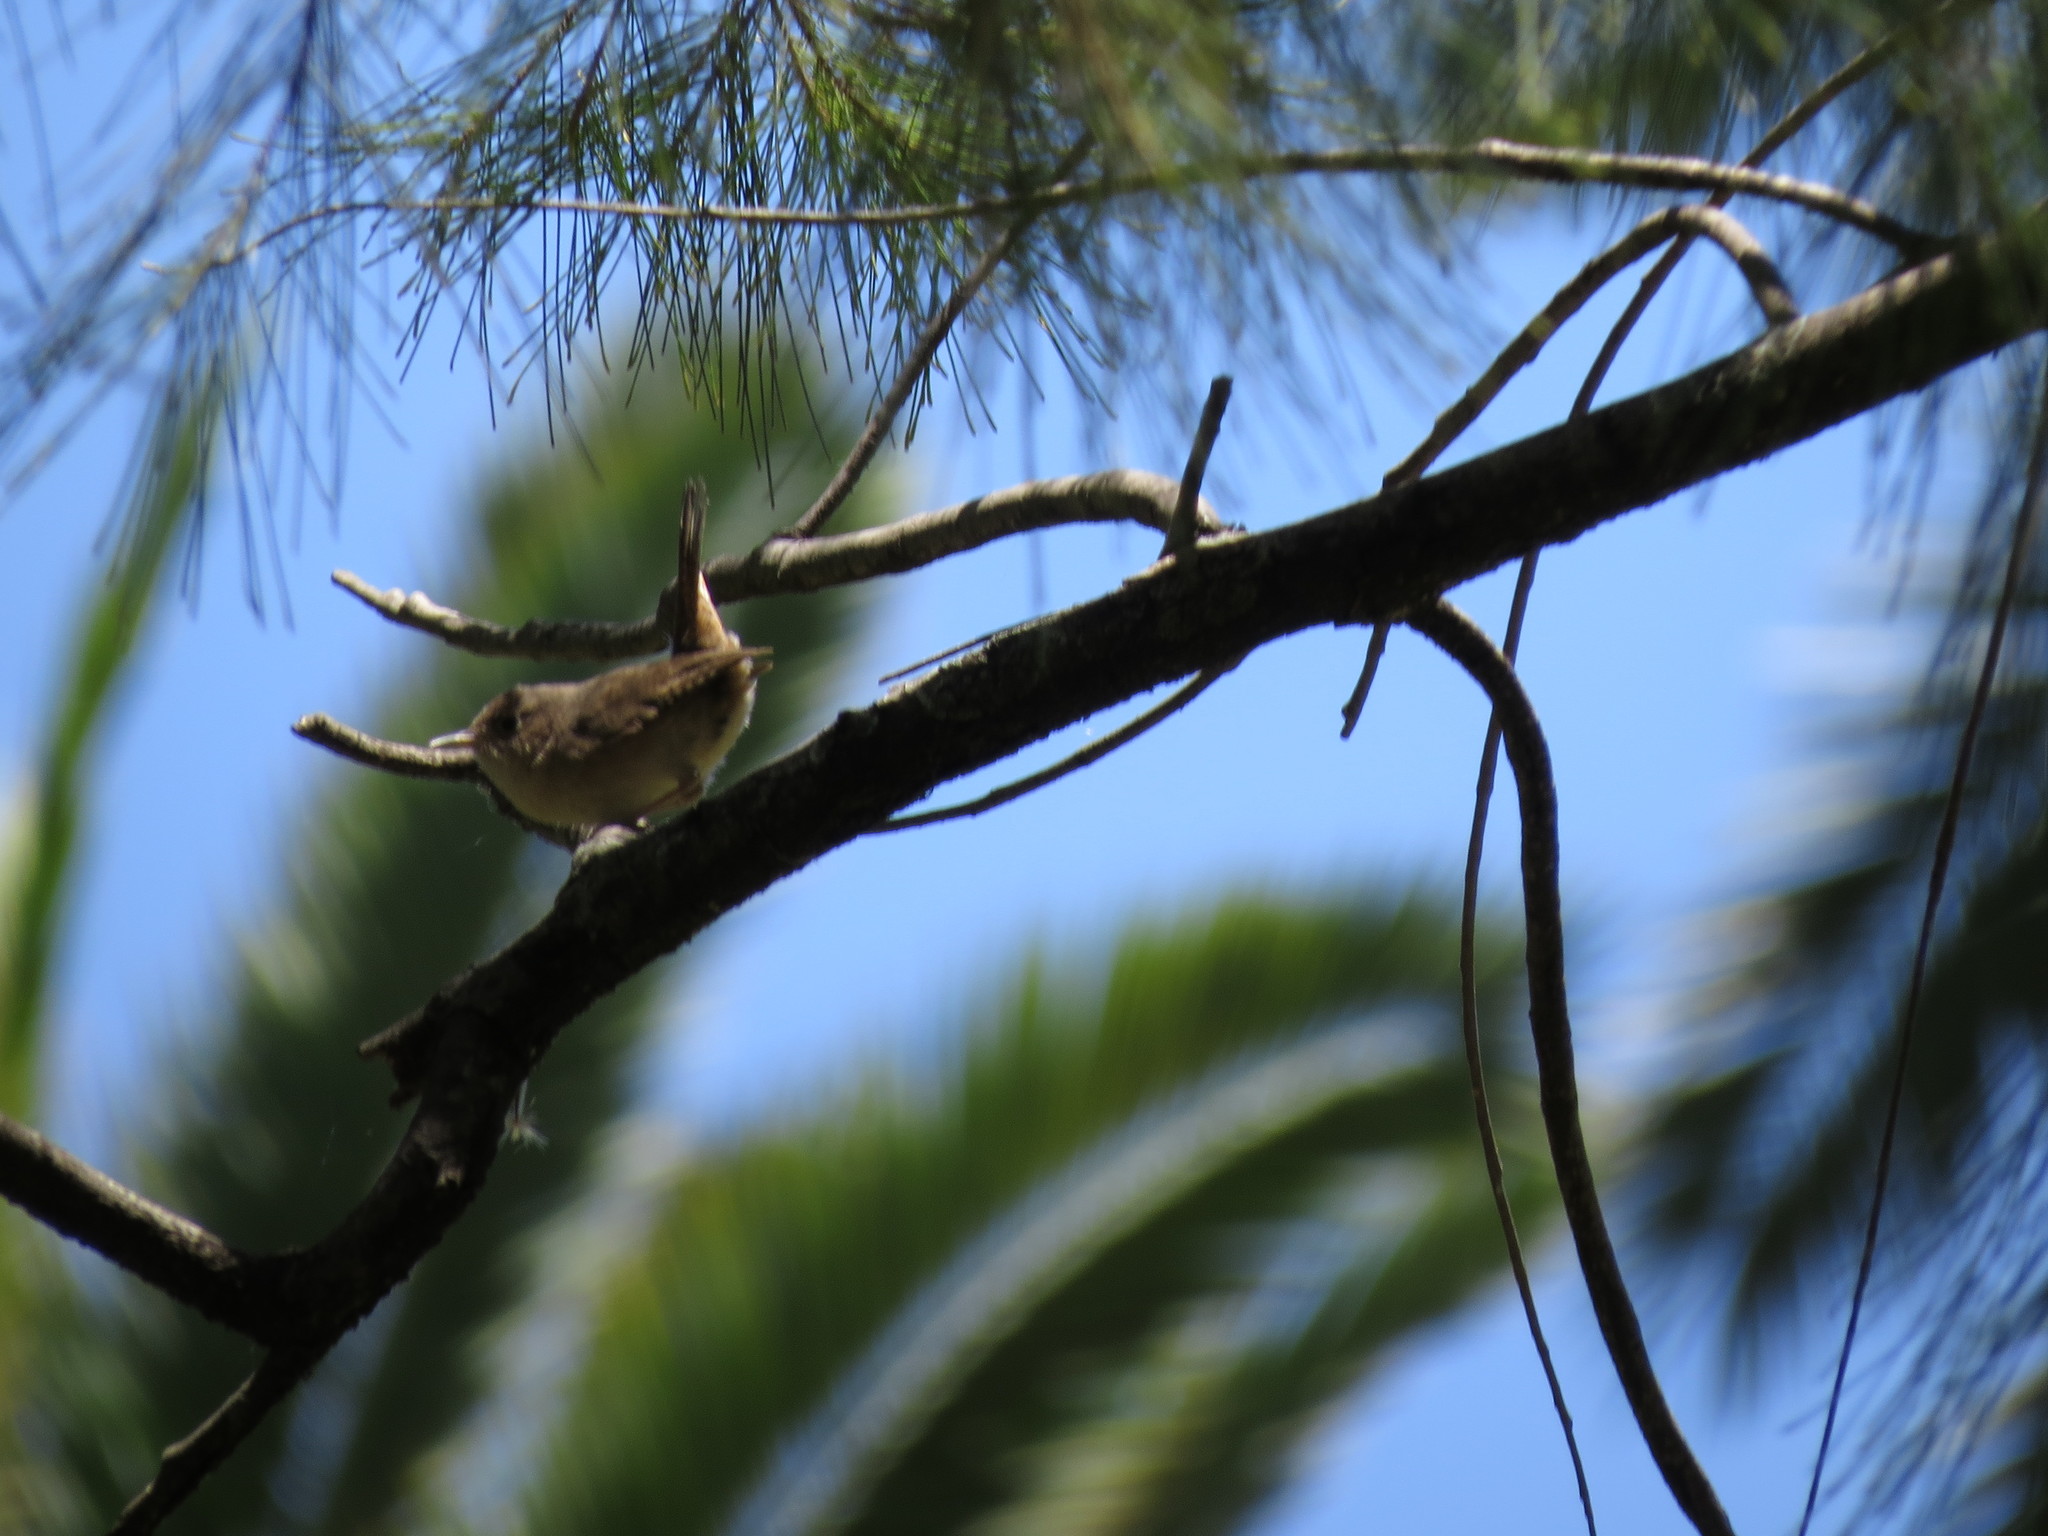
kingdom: Animalia
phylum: Chordata
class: Aves
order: Passeriformes
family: Troglodytidae
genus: Troglodytes
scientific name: Troglodytes aedon
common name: House wren
